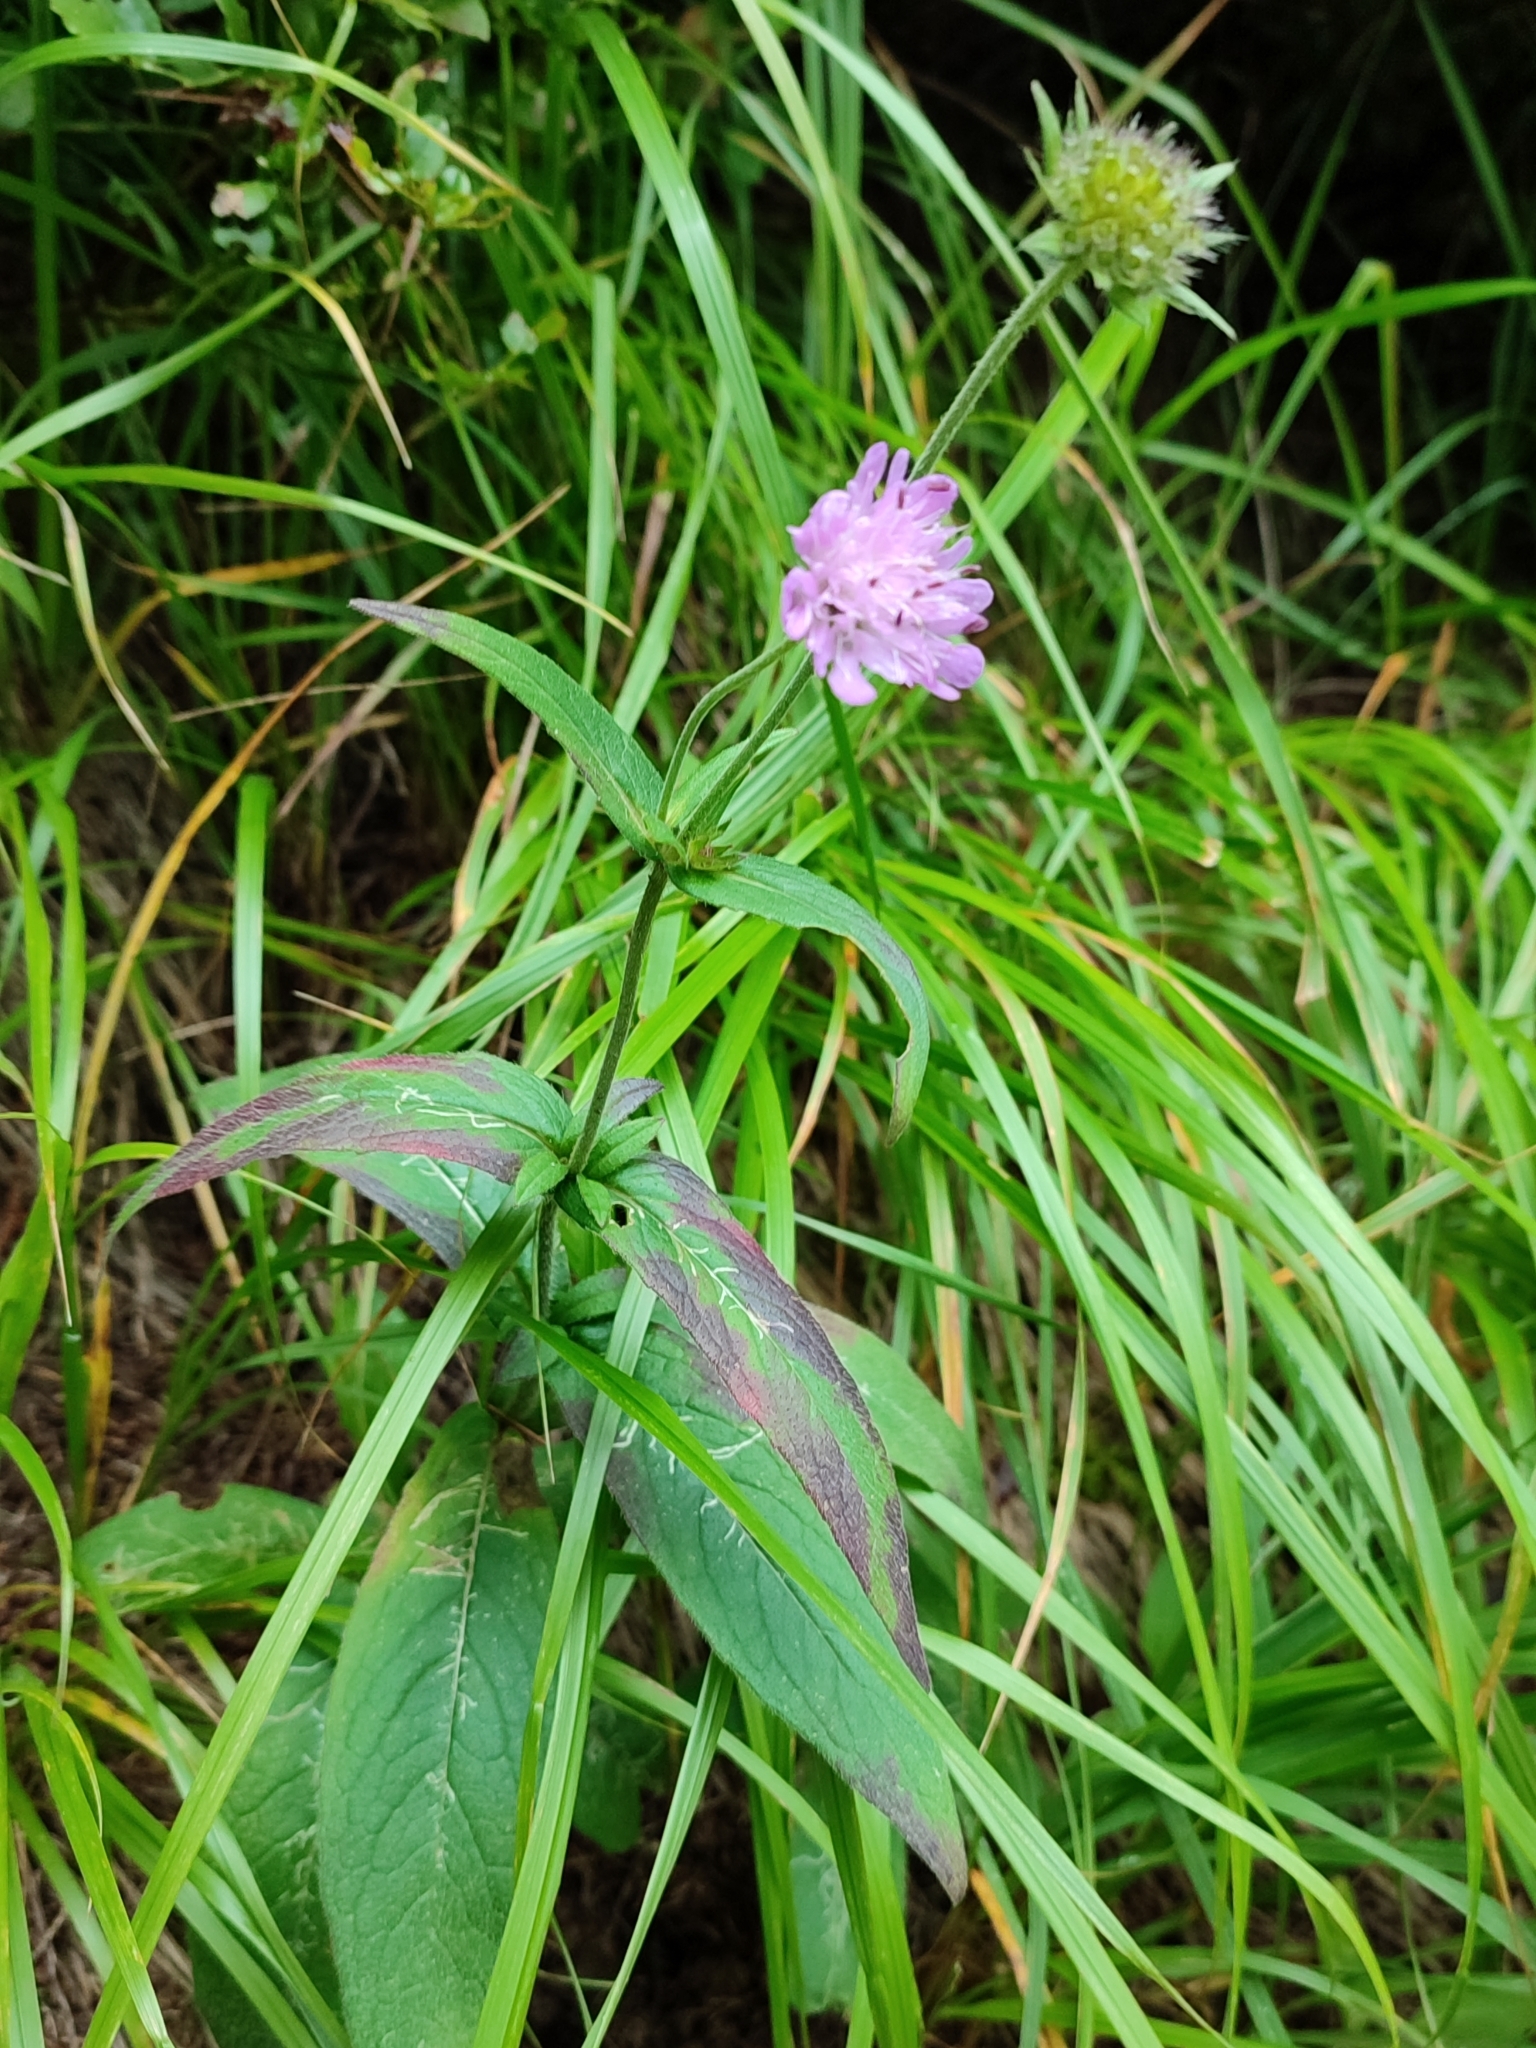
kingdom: Plantae
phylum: Tracheophyta
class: Magnoliopsida
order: Dipsacales
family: Caprifoliaceae
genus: Knautia
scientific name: Knautia dipsacifolia
